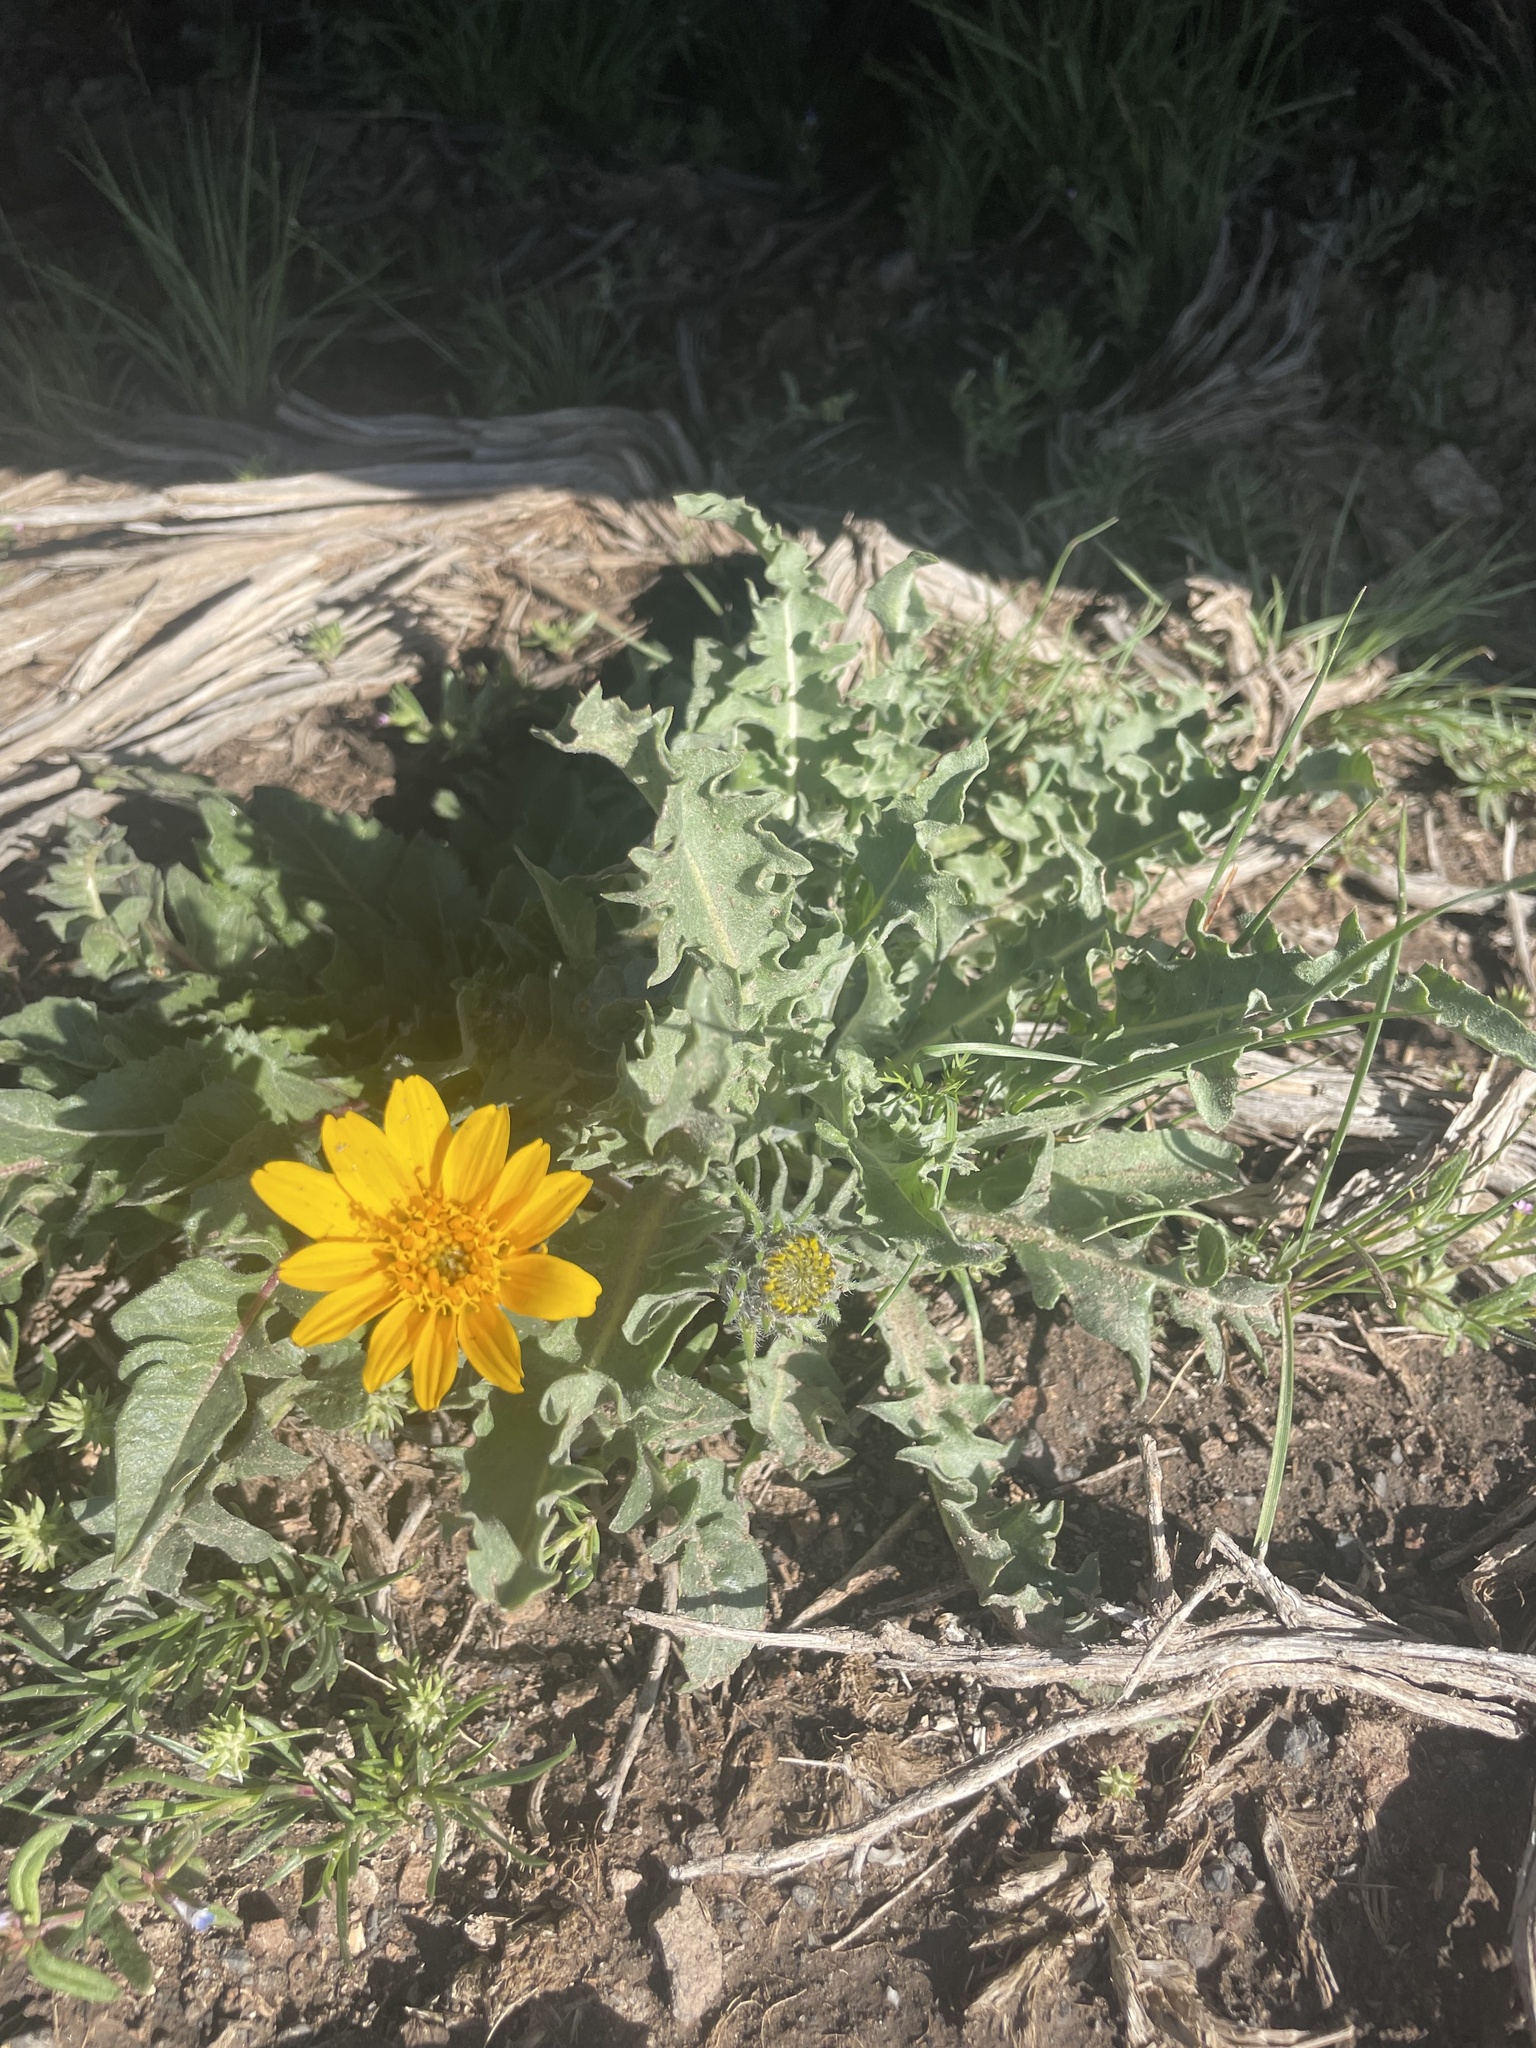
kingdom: Plantae
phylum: Tracheophyta
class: Magnoliopsida
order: Asterales
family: Asteraceae
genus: Balsamorhiza
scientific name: Balsamorhiza serrata
